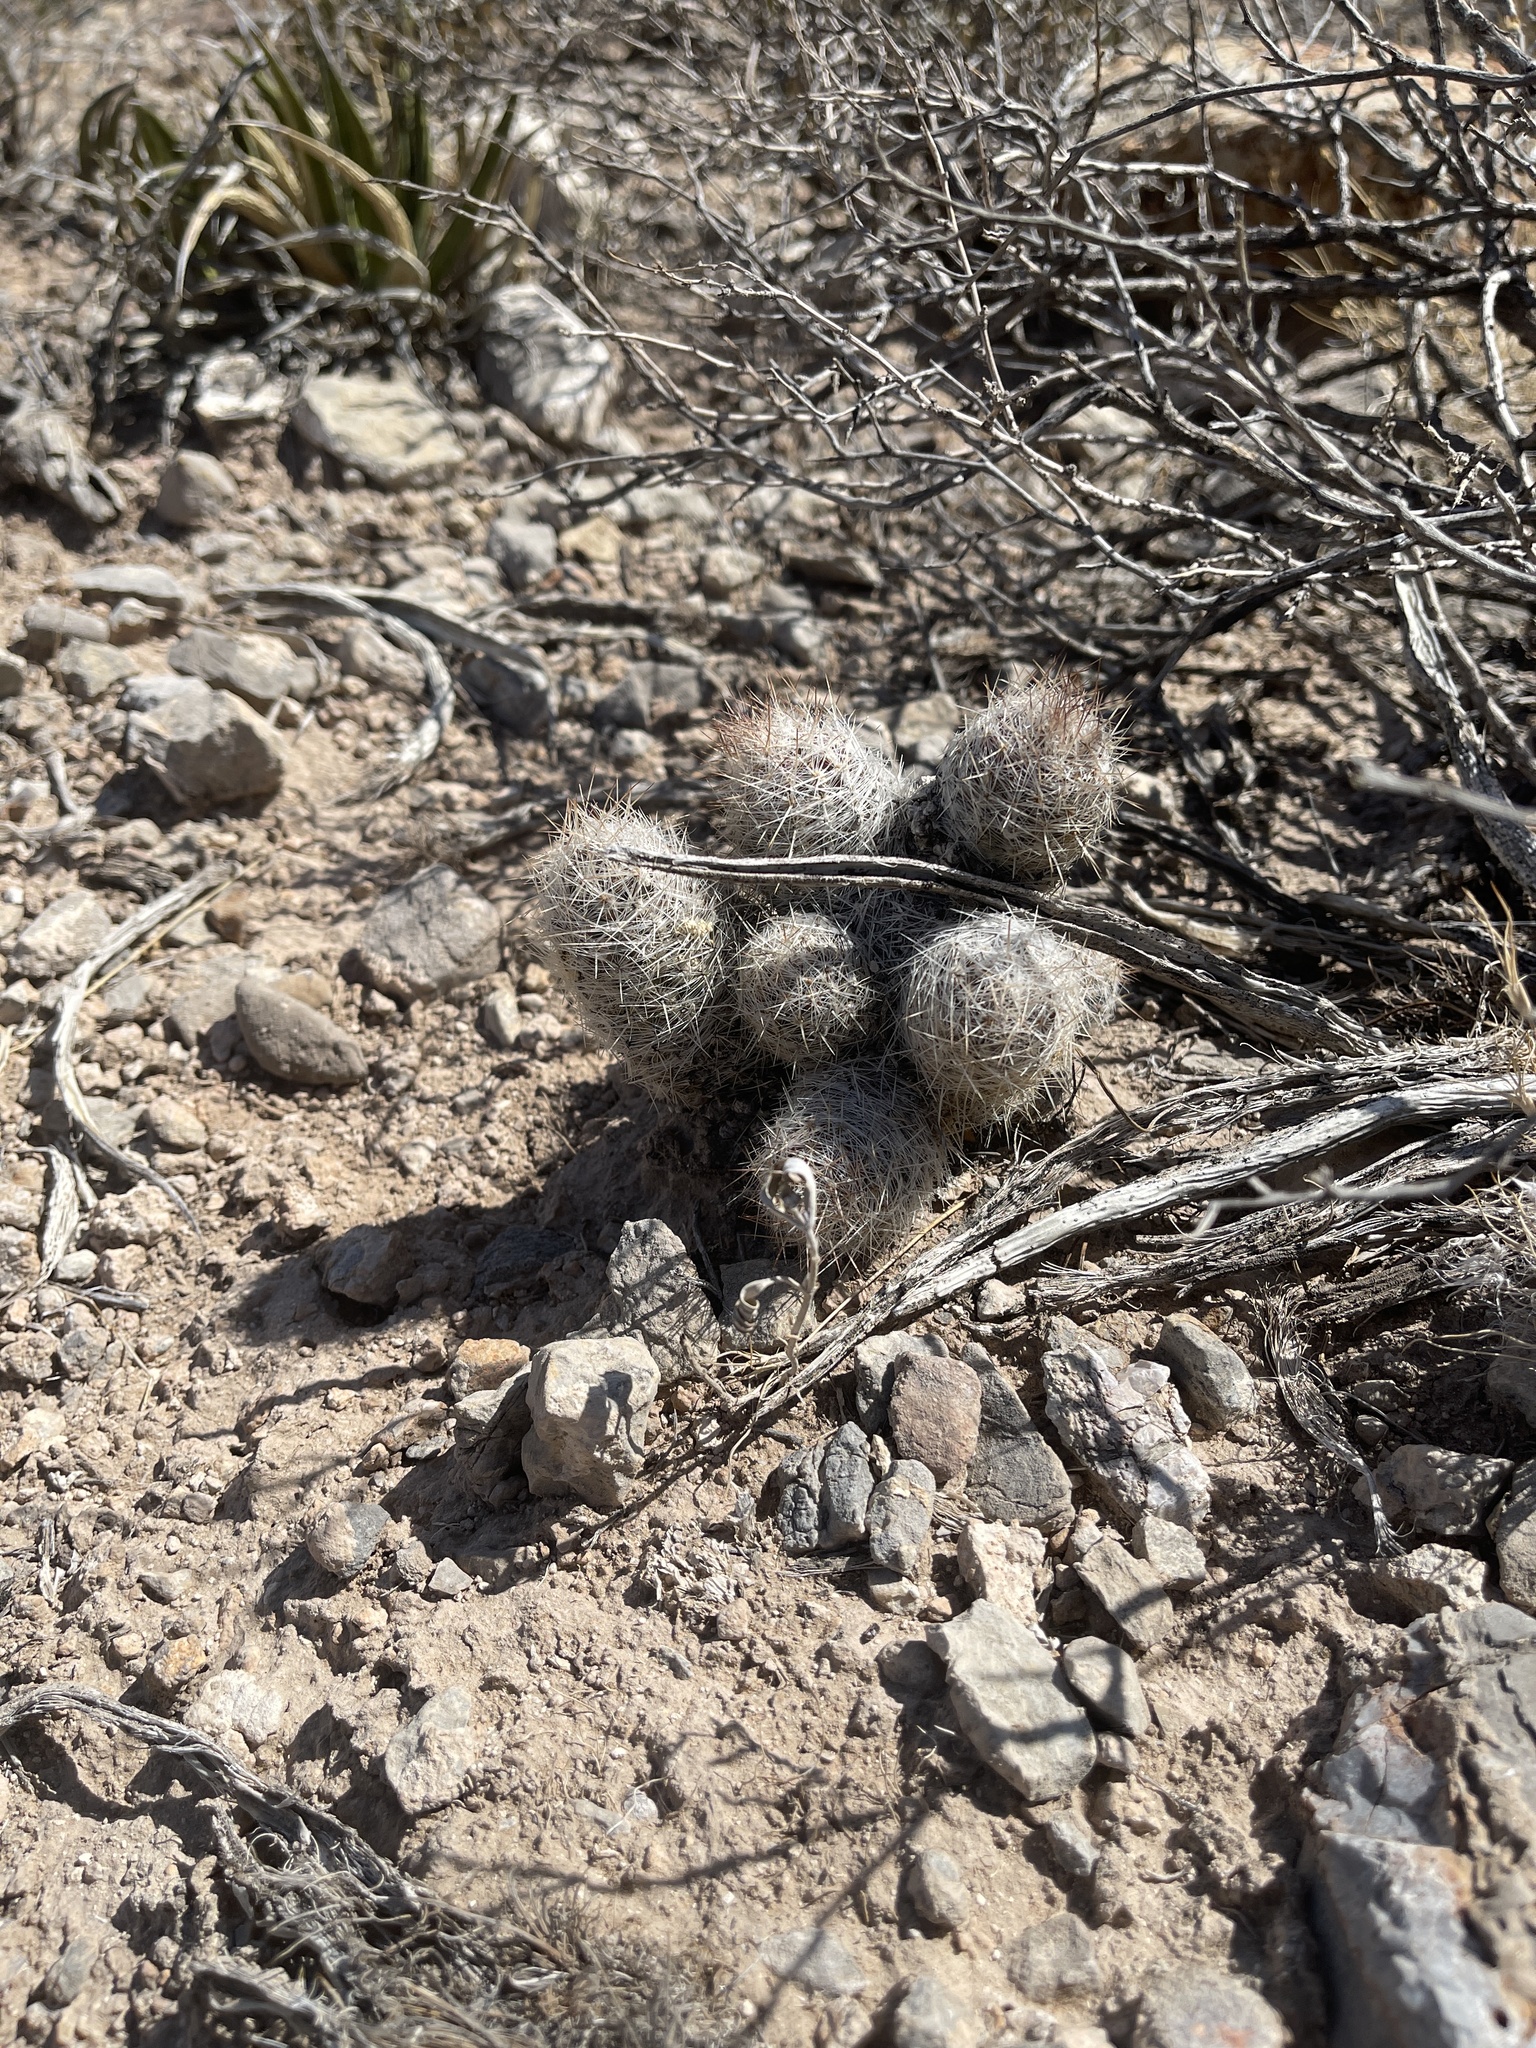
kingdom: Plantae
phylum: Tracheophyta
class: Magnoliopsida
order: Caryophyllales
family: Cactaceae
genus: Pelecyphora
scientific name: Pelecyphora tuberculosa
